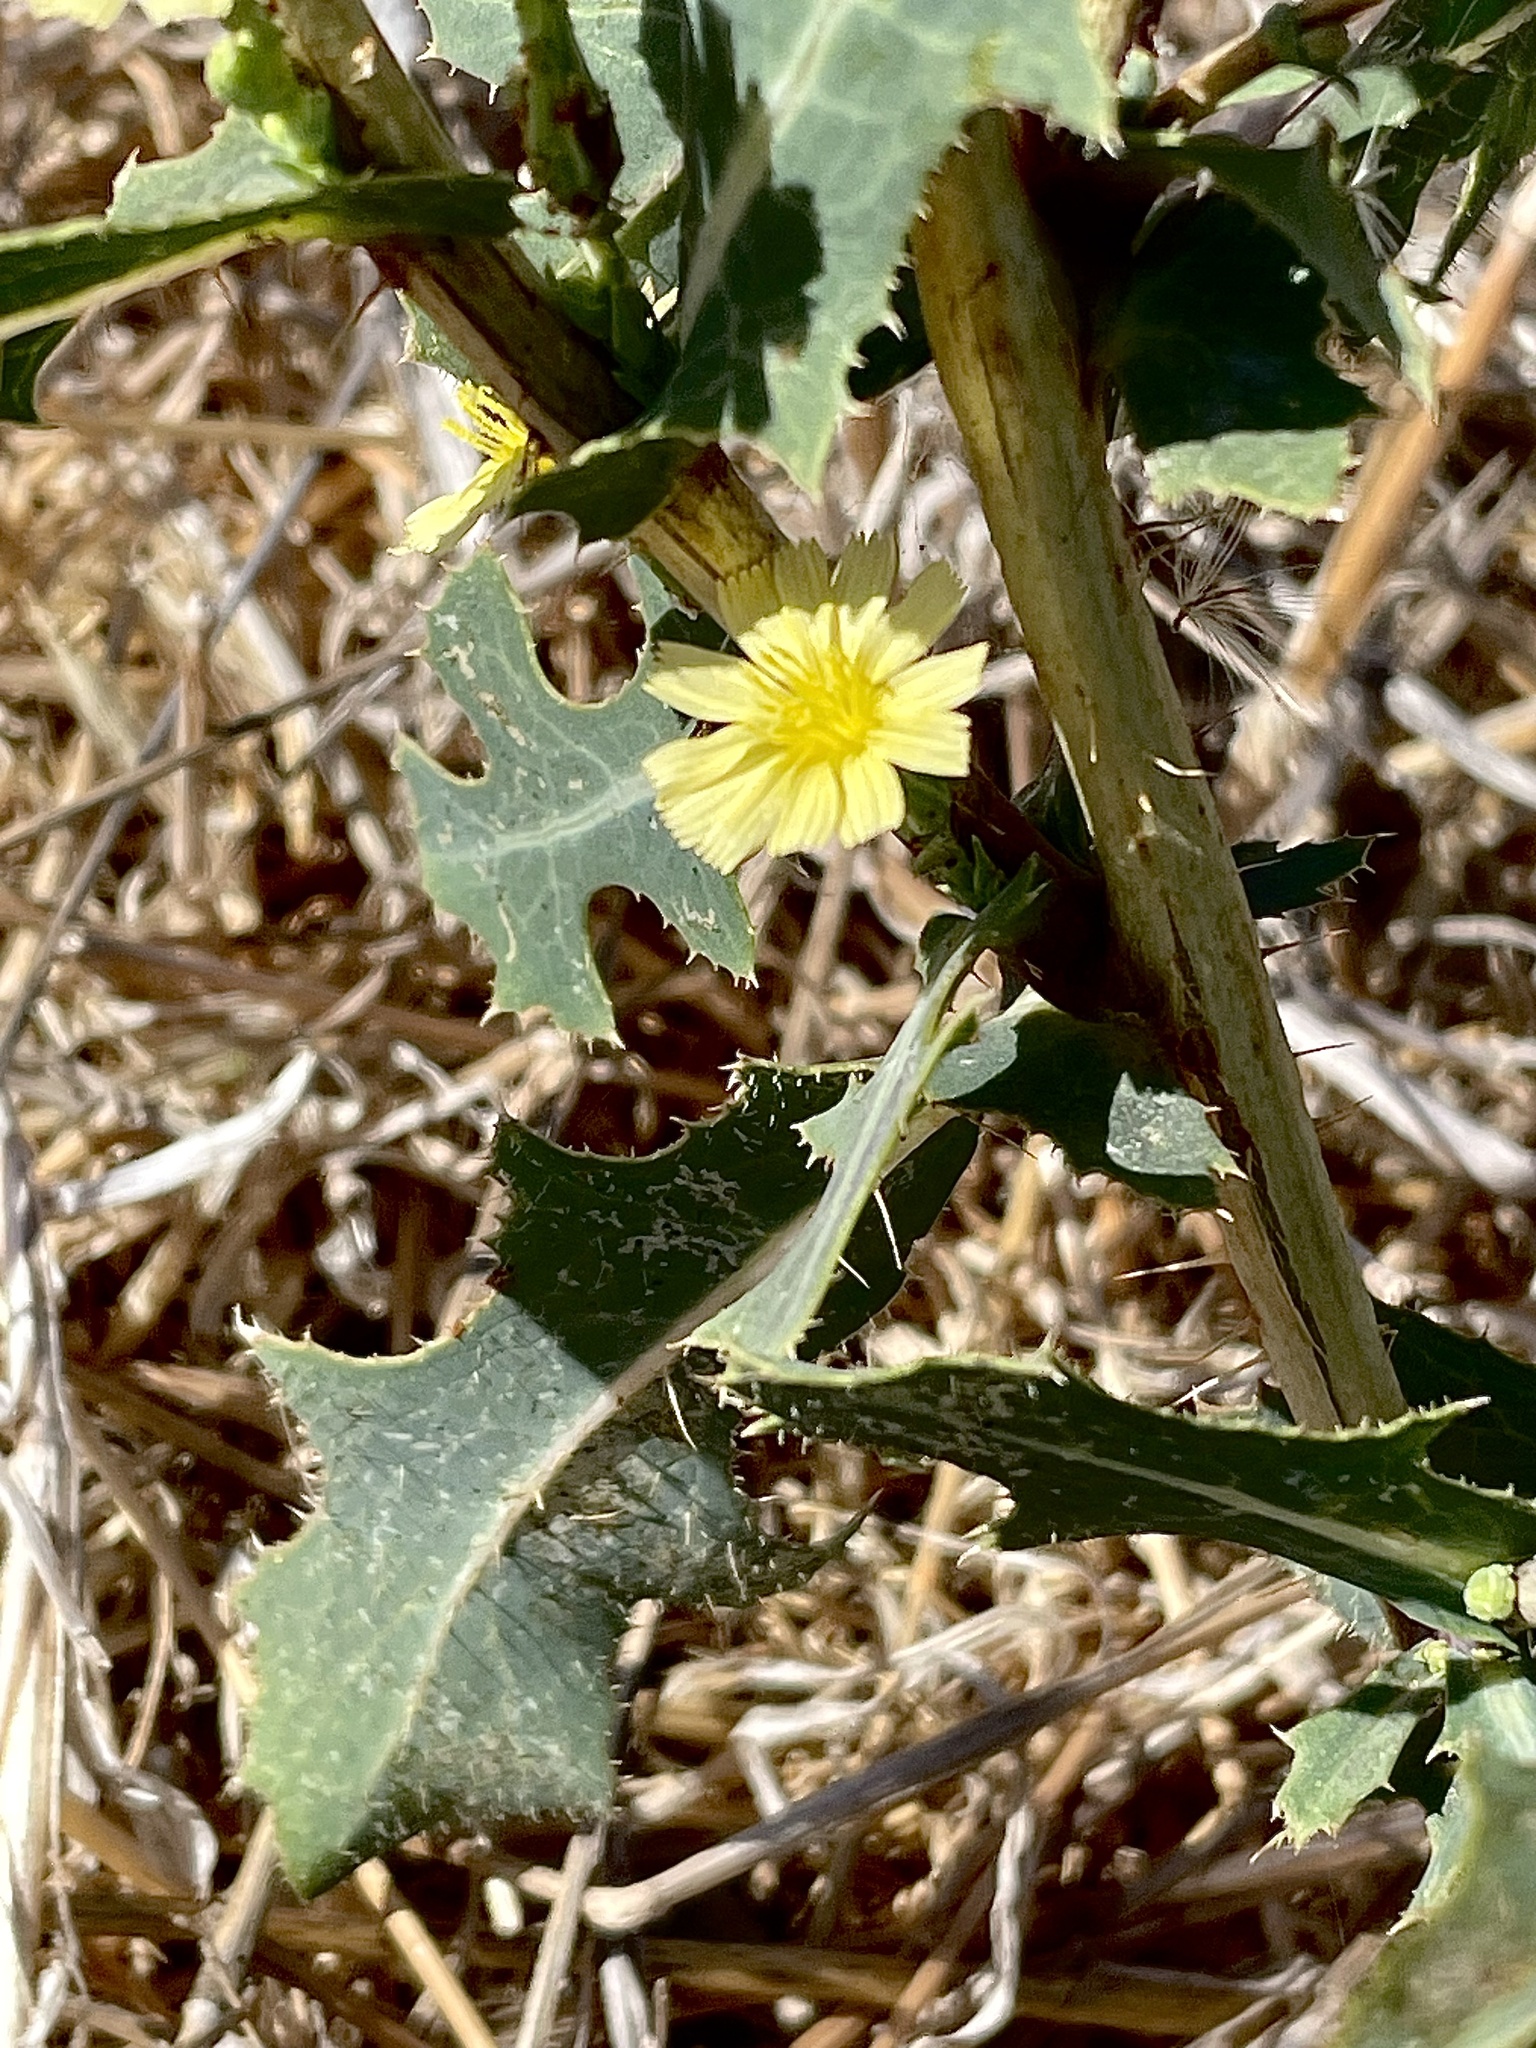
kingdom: Plantae
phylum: Tracheophyta
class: Magnoliopsida
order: Asterales
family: Asteraceae
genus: Lactuca
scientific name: Lactuca serriola
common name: Prickly lettuce
